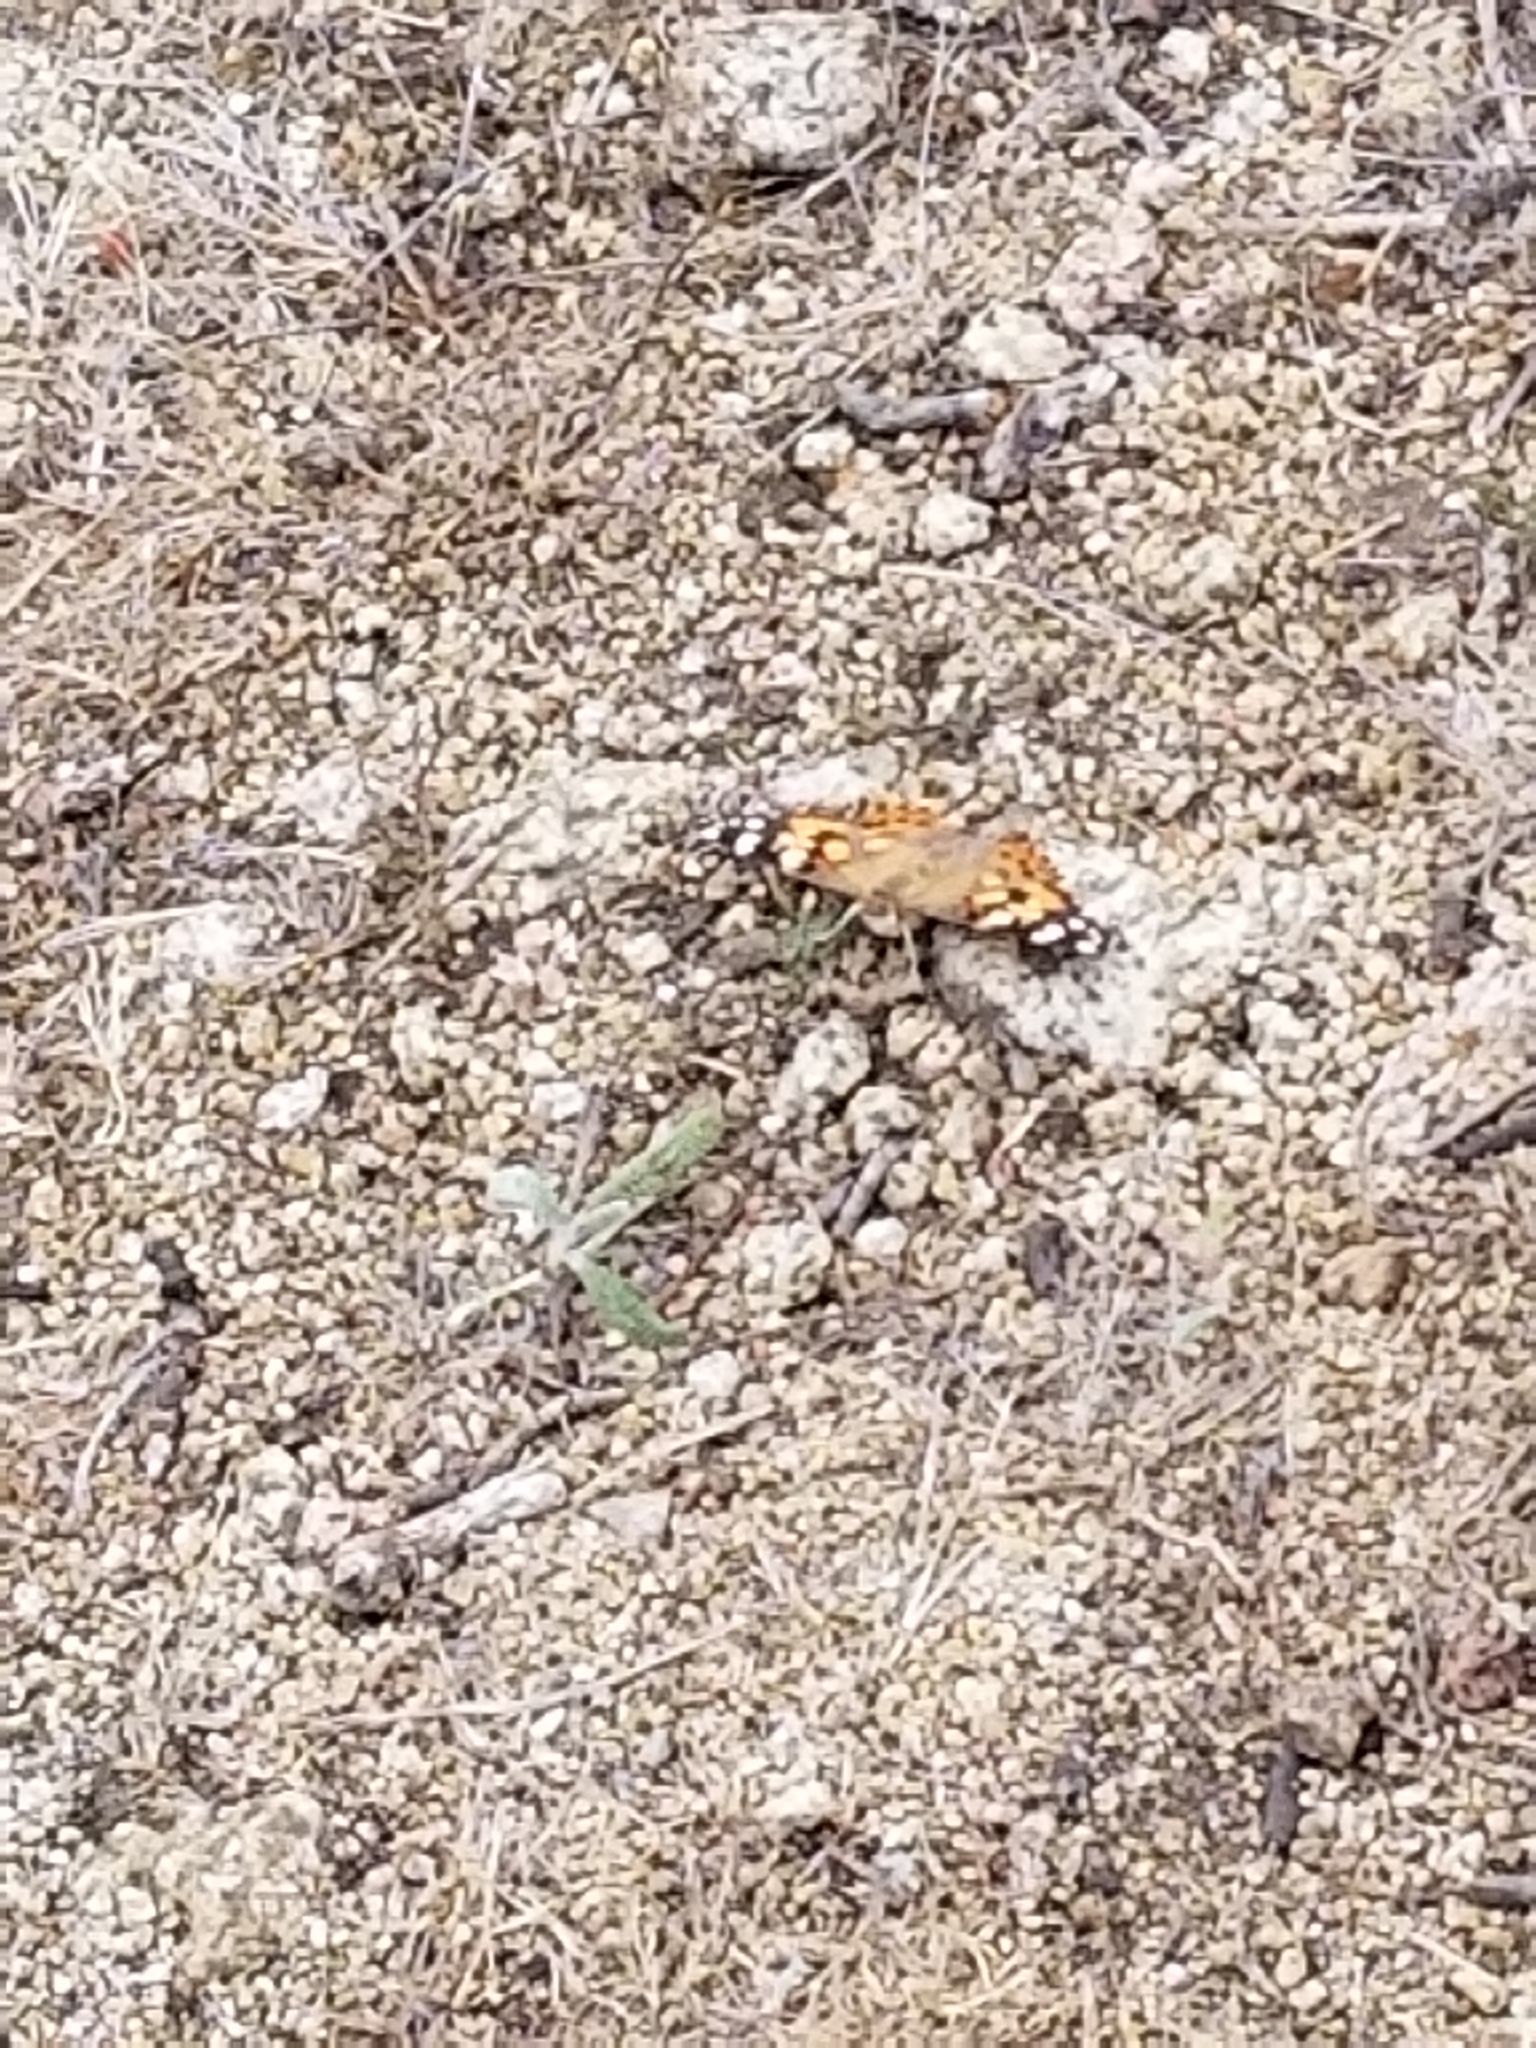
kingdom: Animalia
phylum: Arthropoda
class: Insecta
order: Lepidoptera
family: Nymphalidae
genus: Vanessa
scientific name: Vanessa cardui
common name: Painted lady
